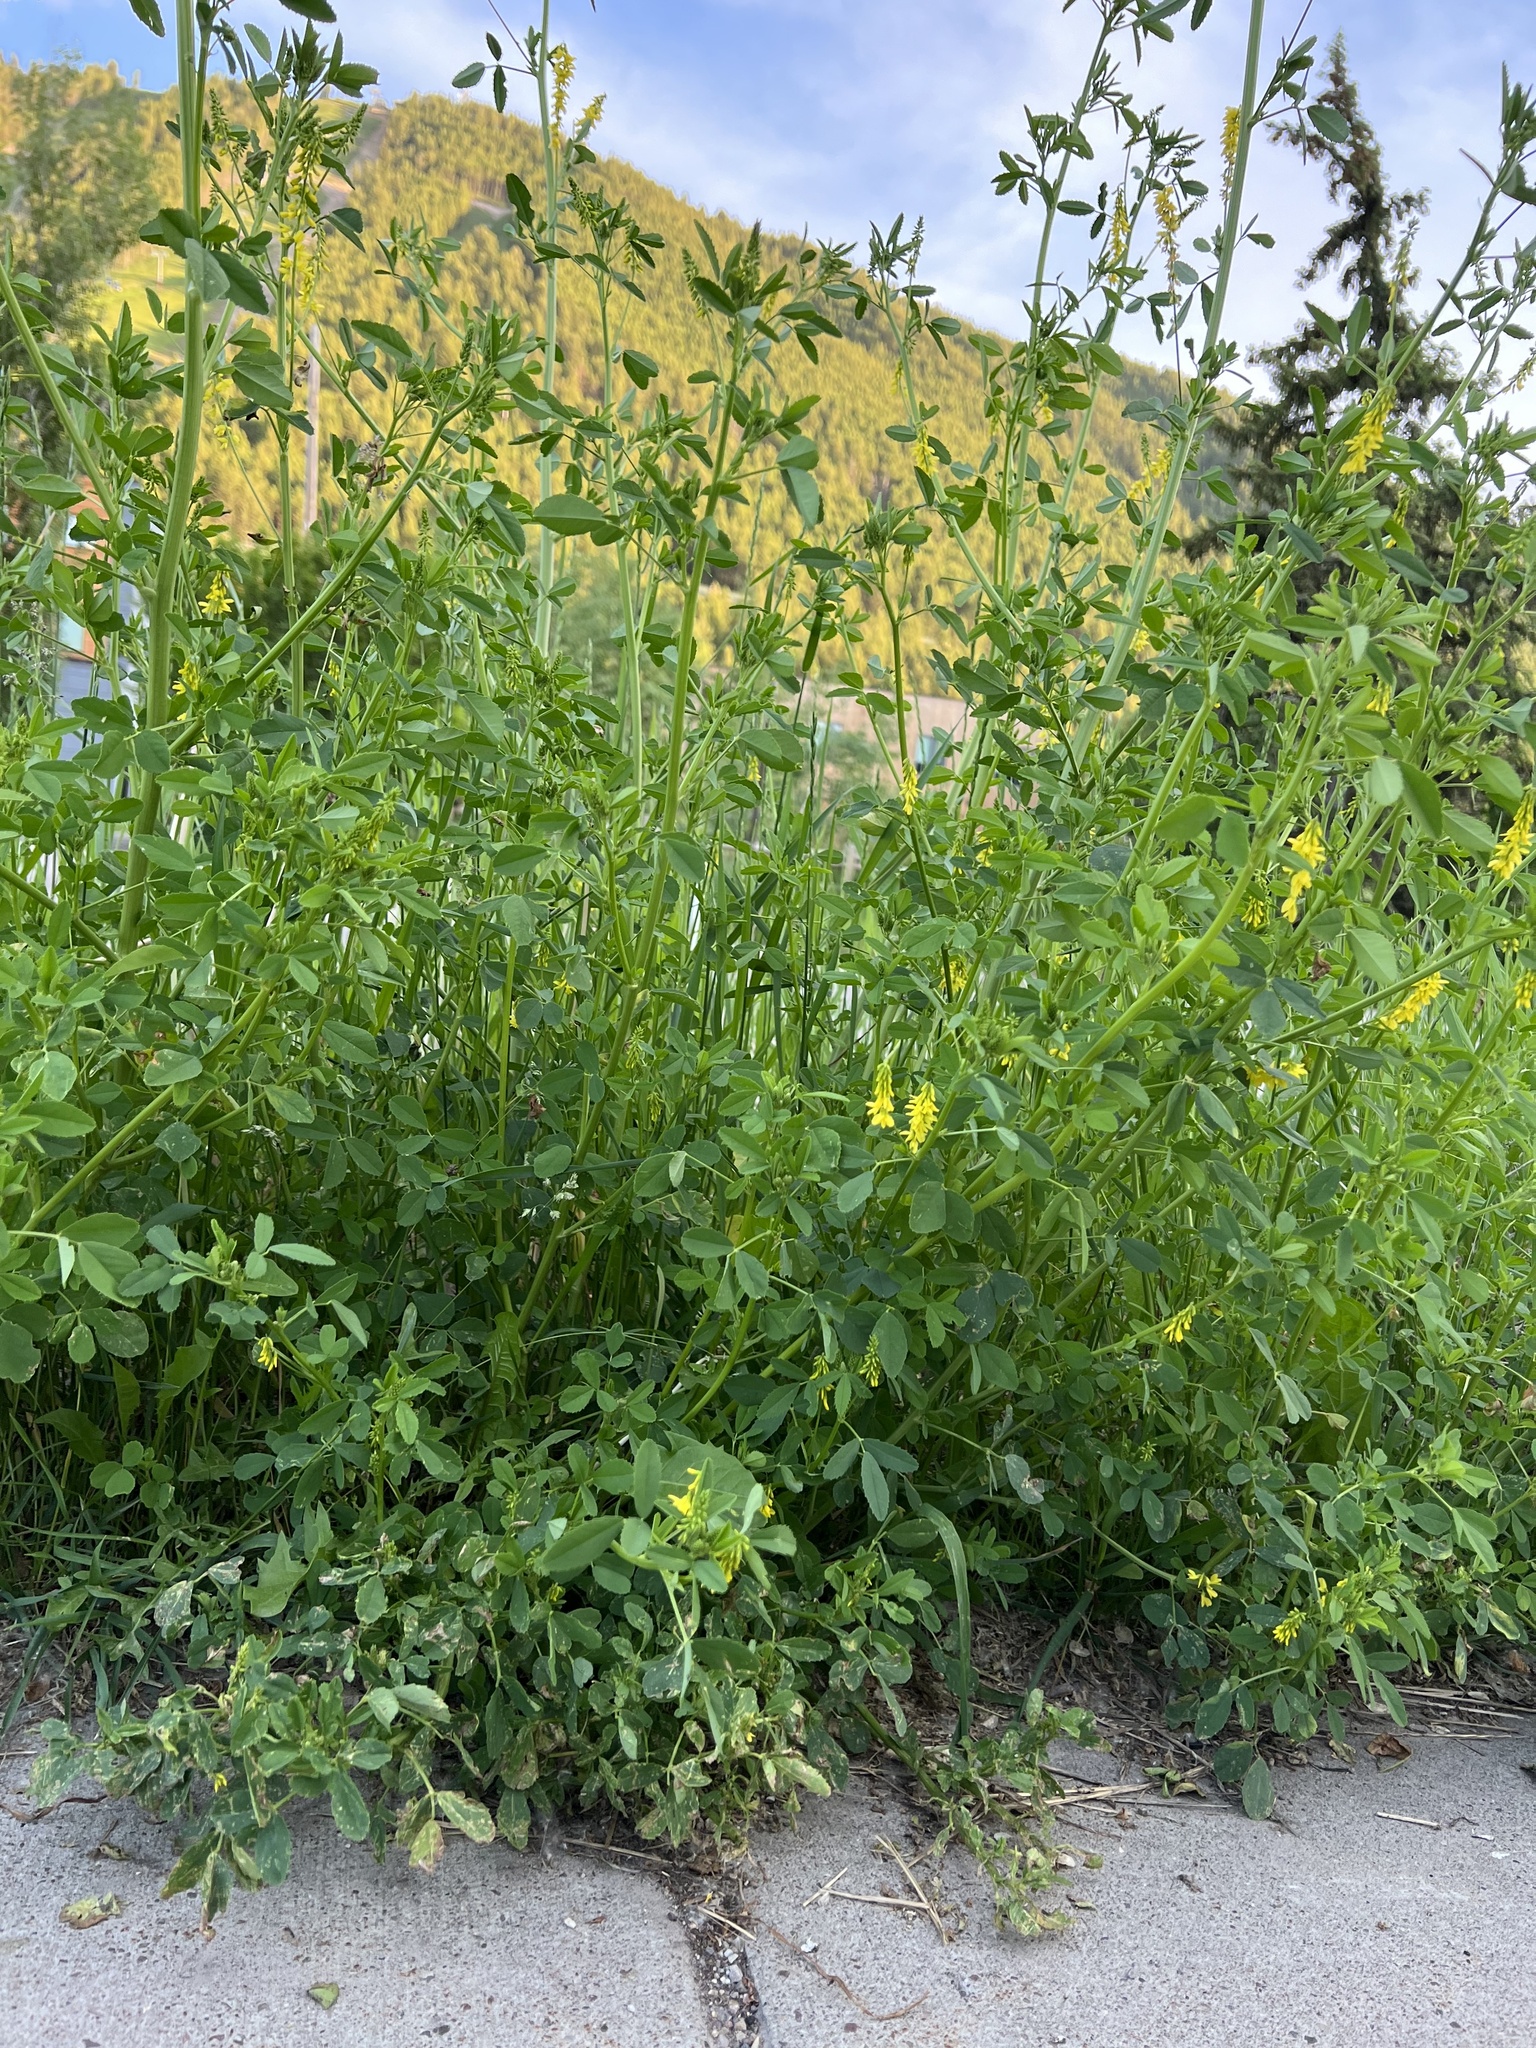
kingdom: Plantae
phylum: Tracheophyta
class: Magnoliopsida
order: Fabales
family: Fabaceae
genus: Melilotus
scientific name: Melilotus officinalis
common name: Sweetclover
